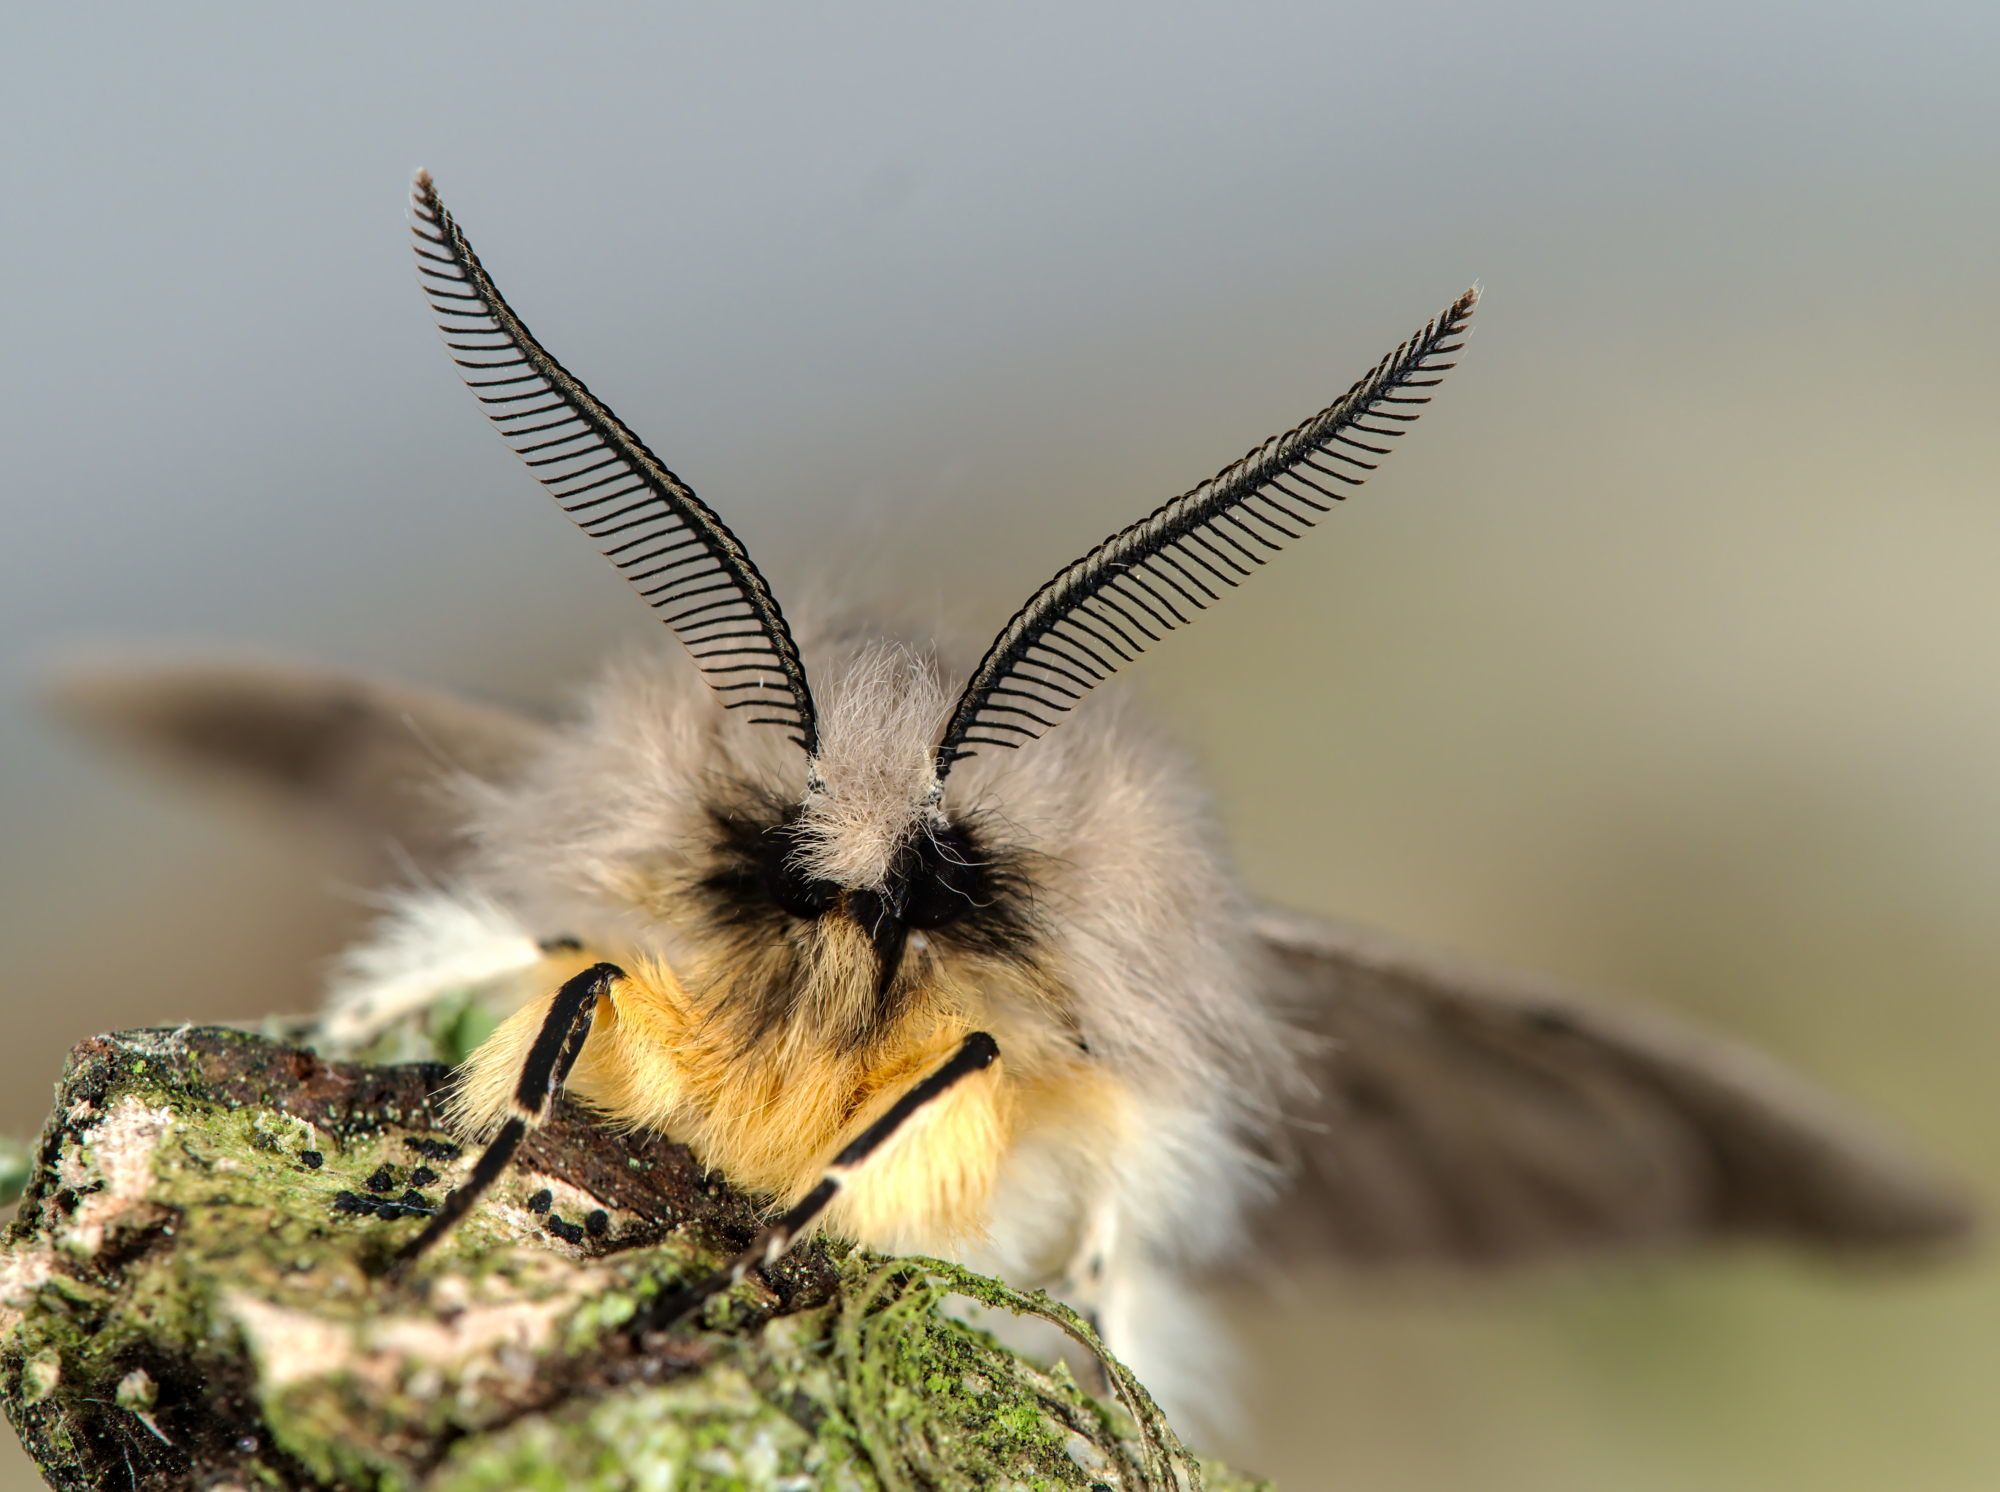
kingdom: Animalia
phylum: Arthropoda
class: Insecta
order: Lepidoptera
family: Erebidae
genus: Diaphora
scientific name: Diaphora mendica
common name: Muslin moth
